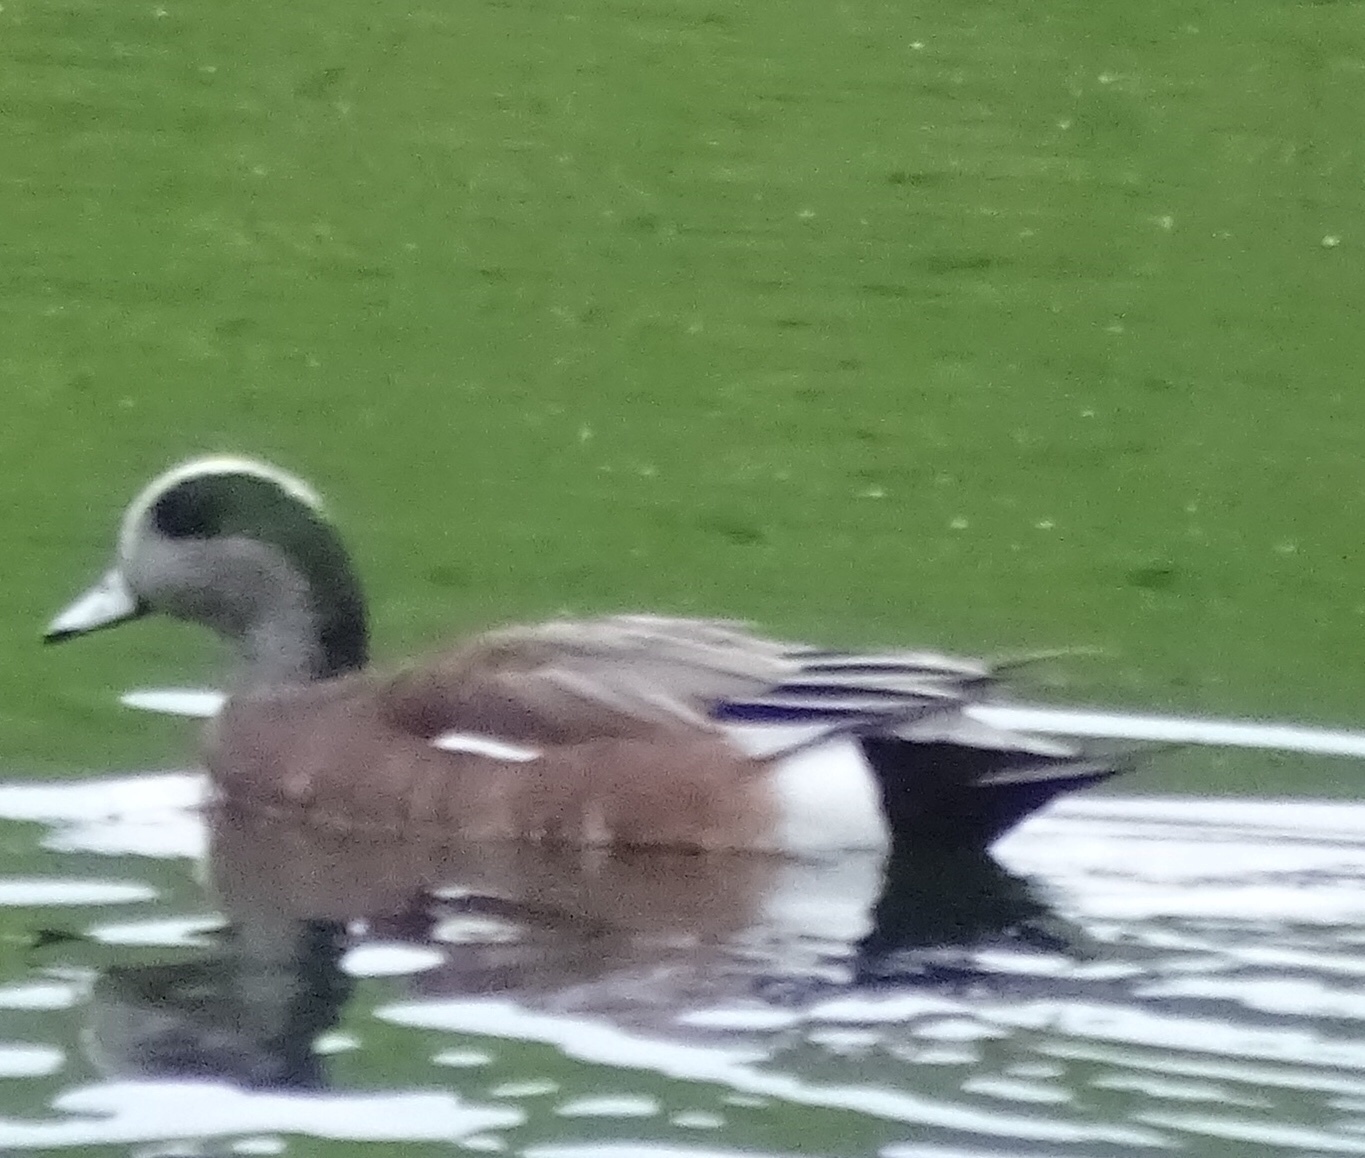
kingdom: Animalia
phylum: Chordata
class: Aves
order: Anseriformes
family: Anatidae
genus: Mareca
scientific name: Mareca americana
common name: American wigeon
